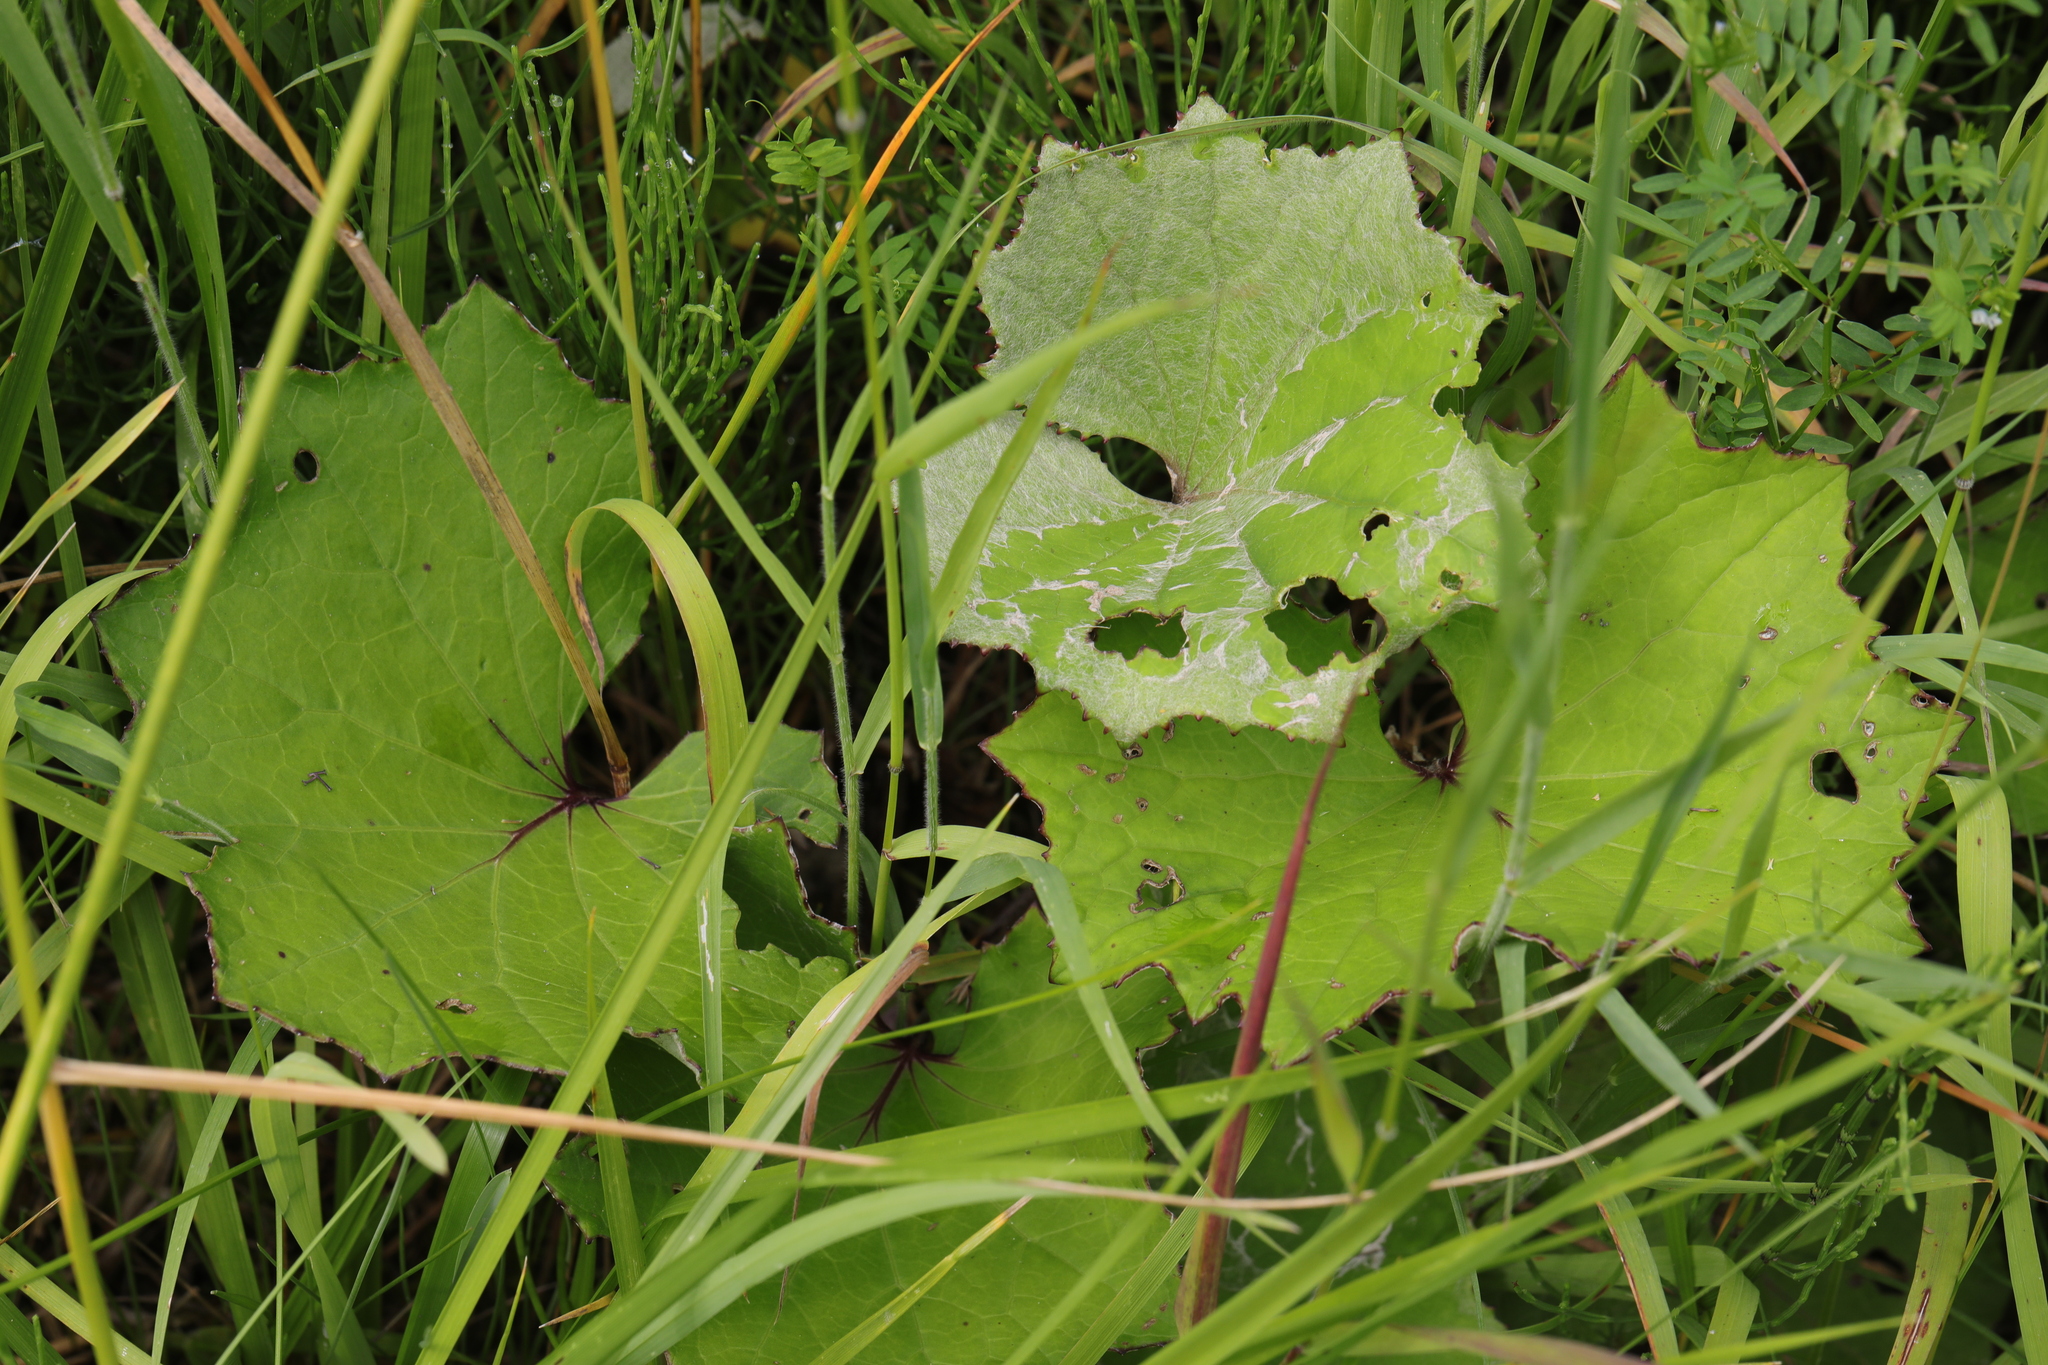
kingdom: Plantae
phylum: Tracheophyta
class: Magnoliopsida
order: Asterales
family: Asteraceae
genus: Tussilago
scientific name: Tussilago farfara
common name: Coltsfoot
